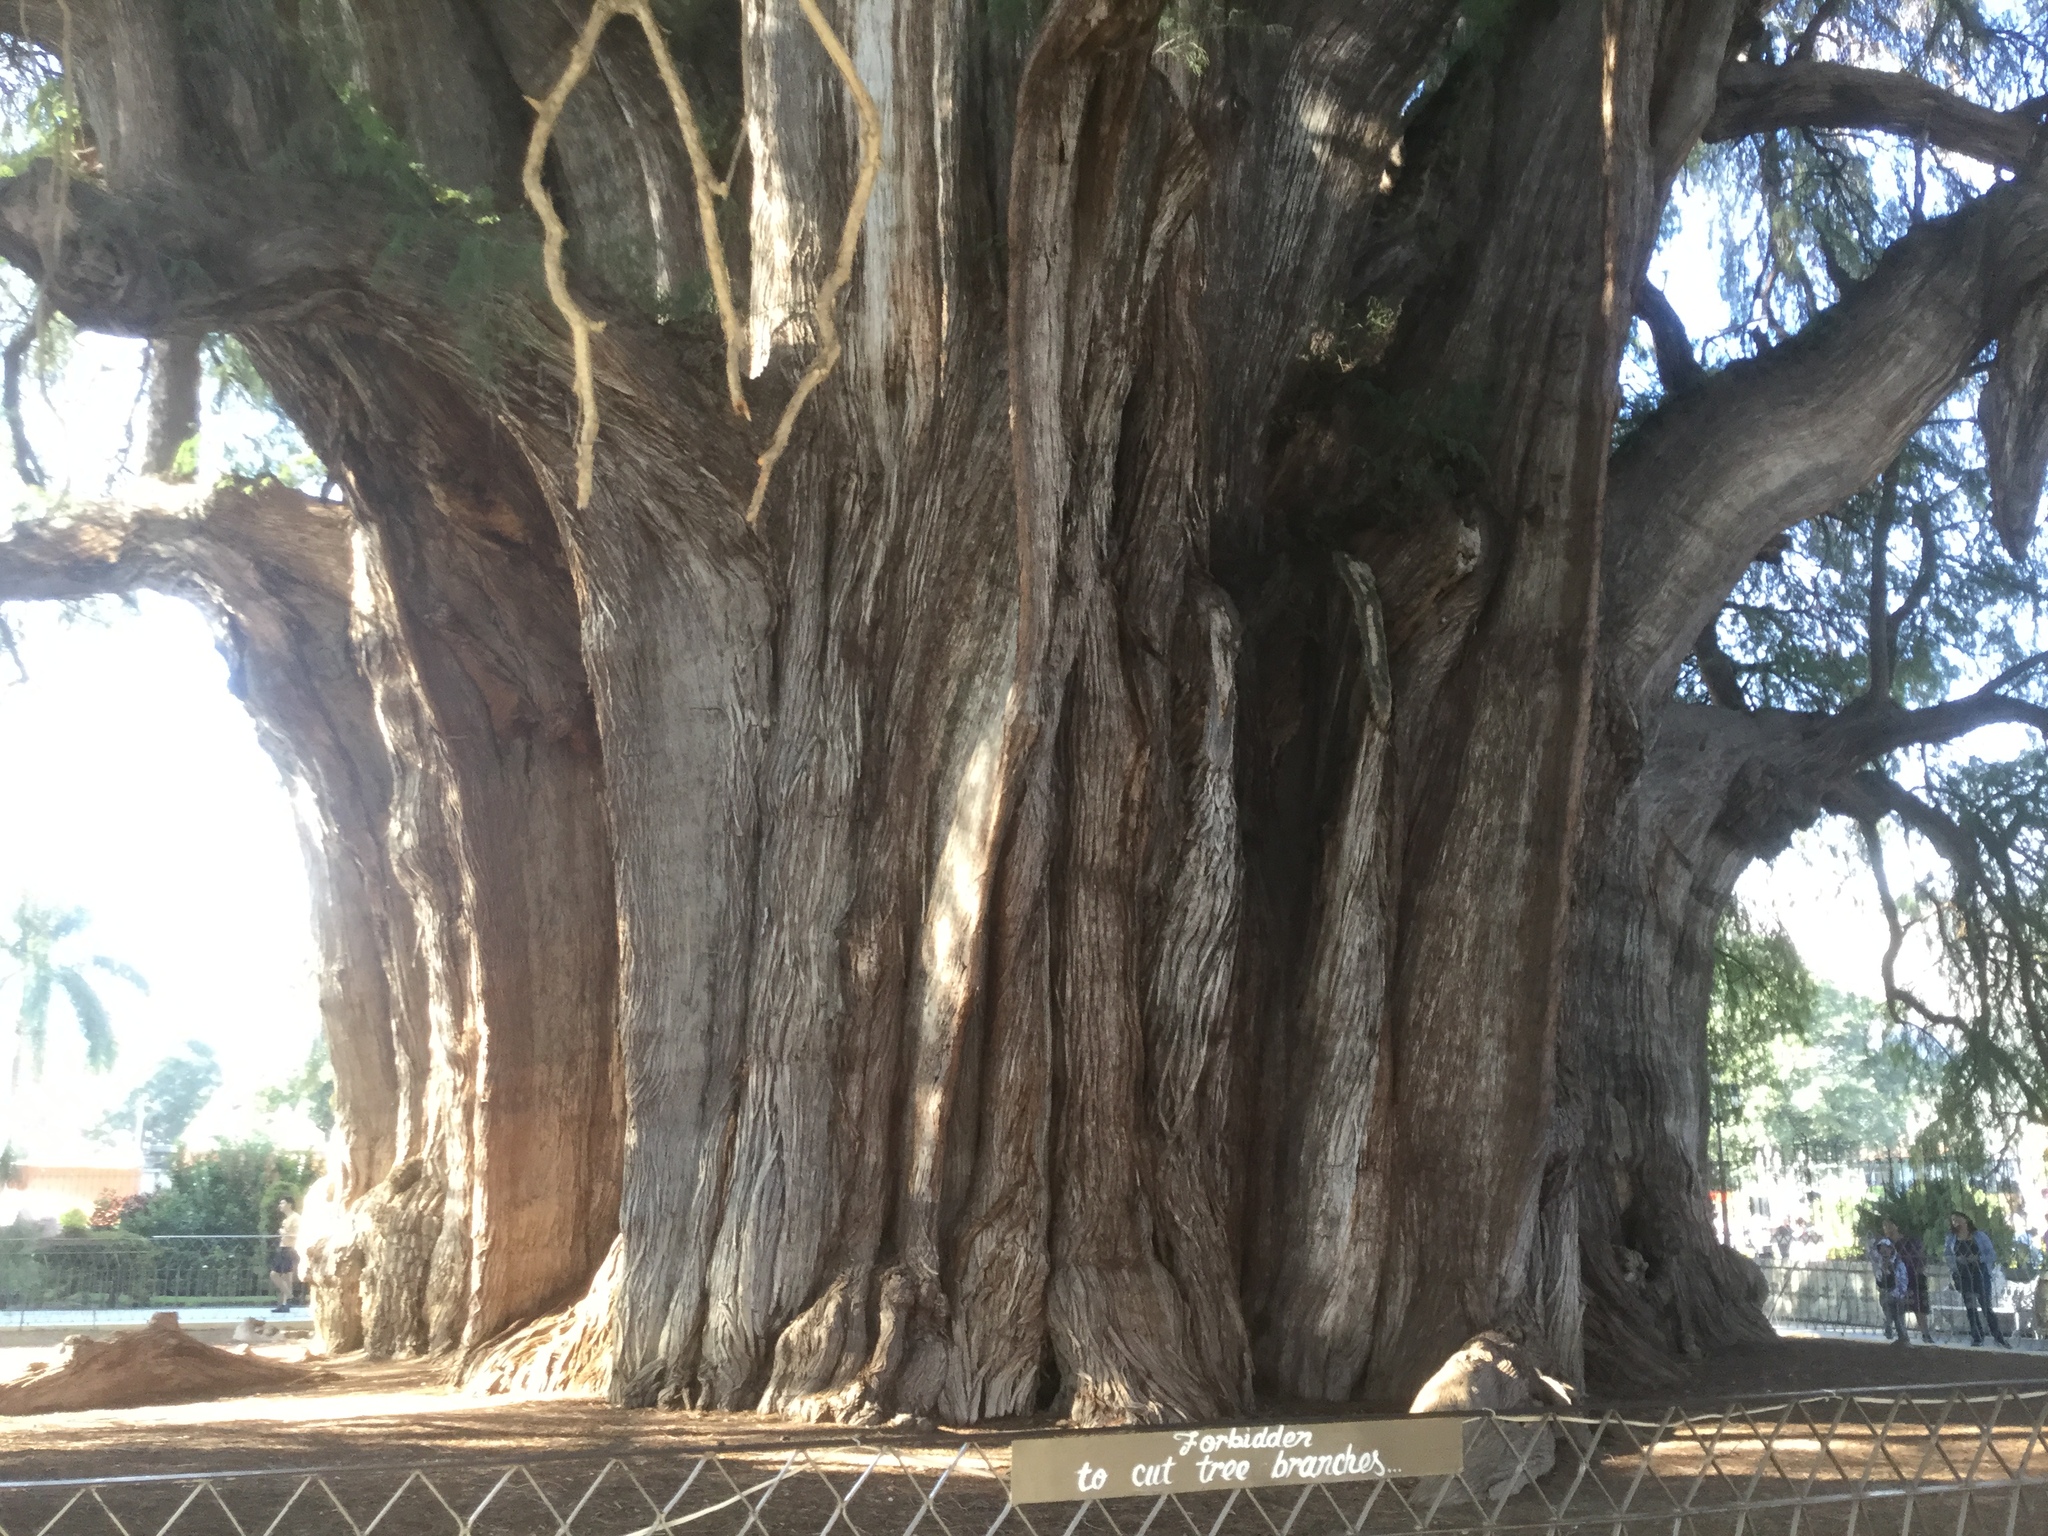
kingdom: Plantae
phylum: Tracheophyta
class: Pinopsida
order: Pinales
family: Cupressaceae
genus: Taxodium
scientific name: Taxodium mucronatum
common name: Montezume bald cypress
